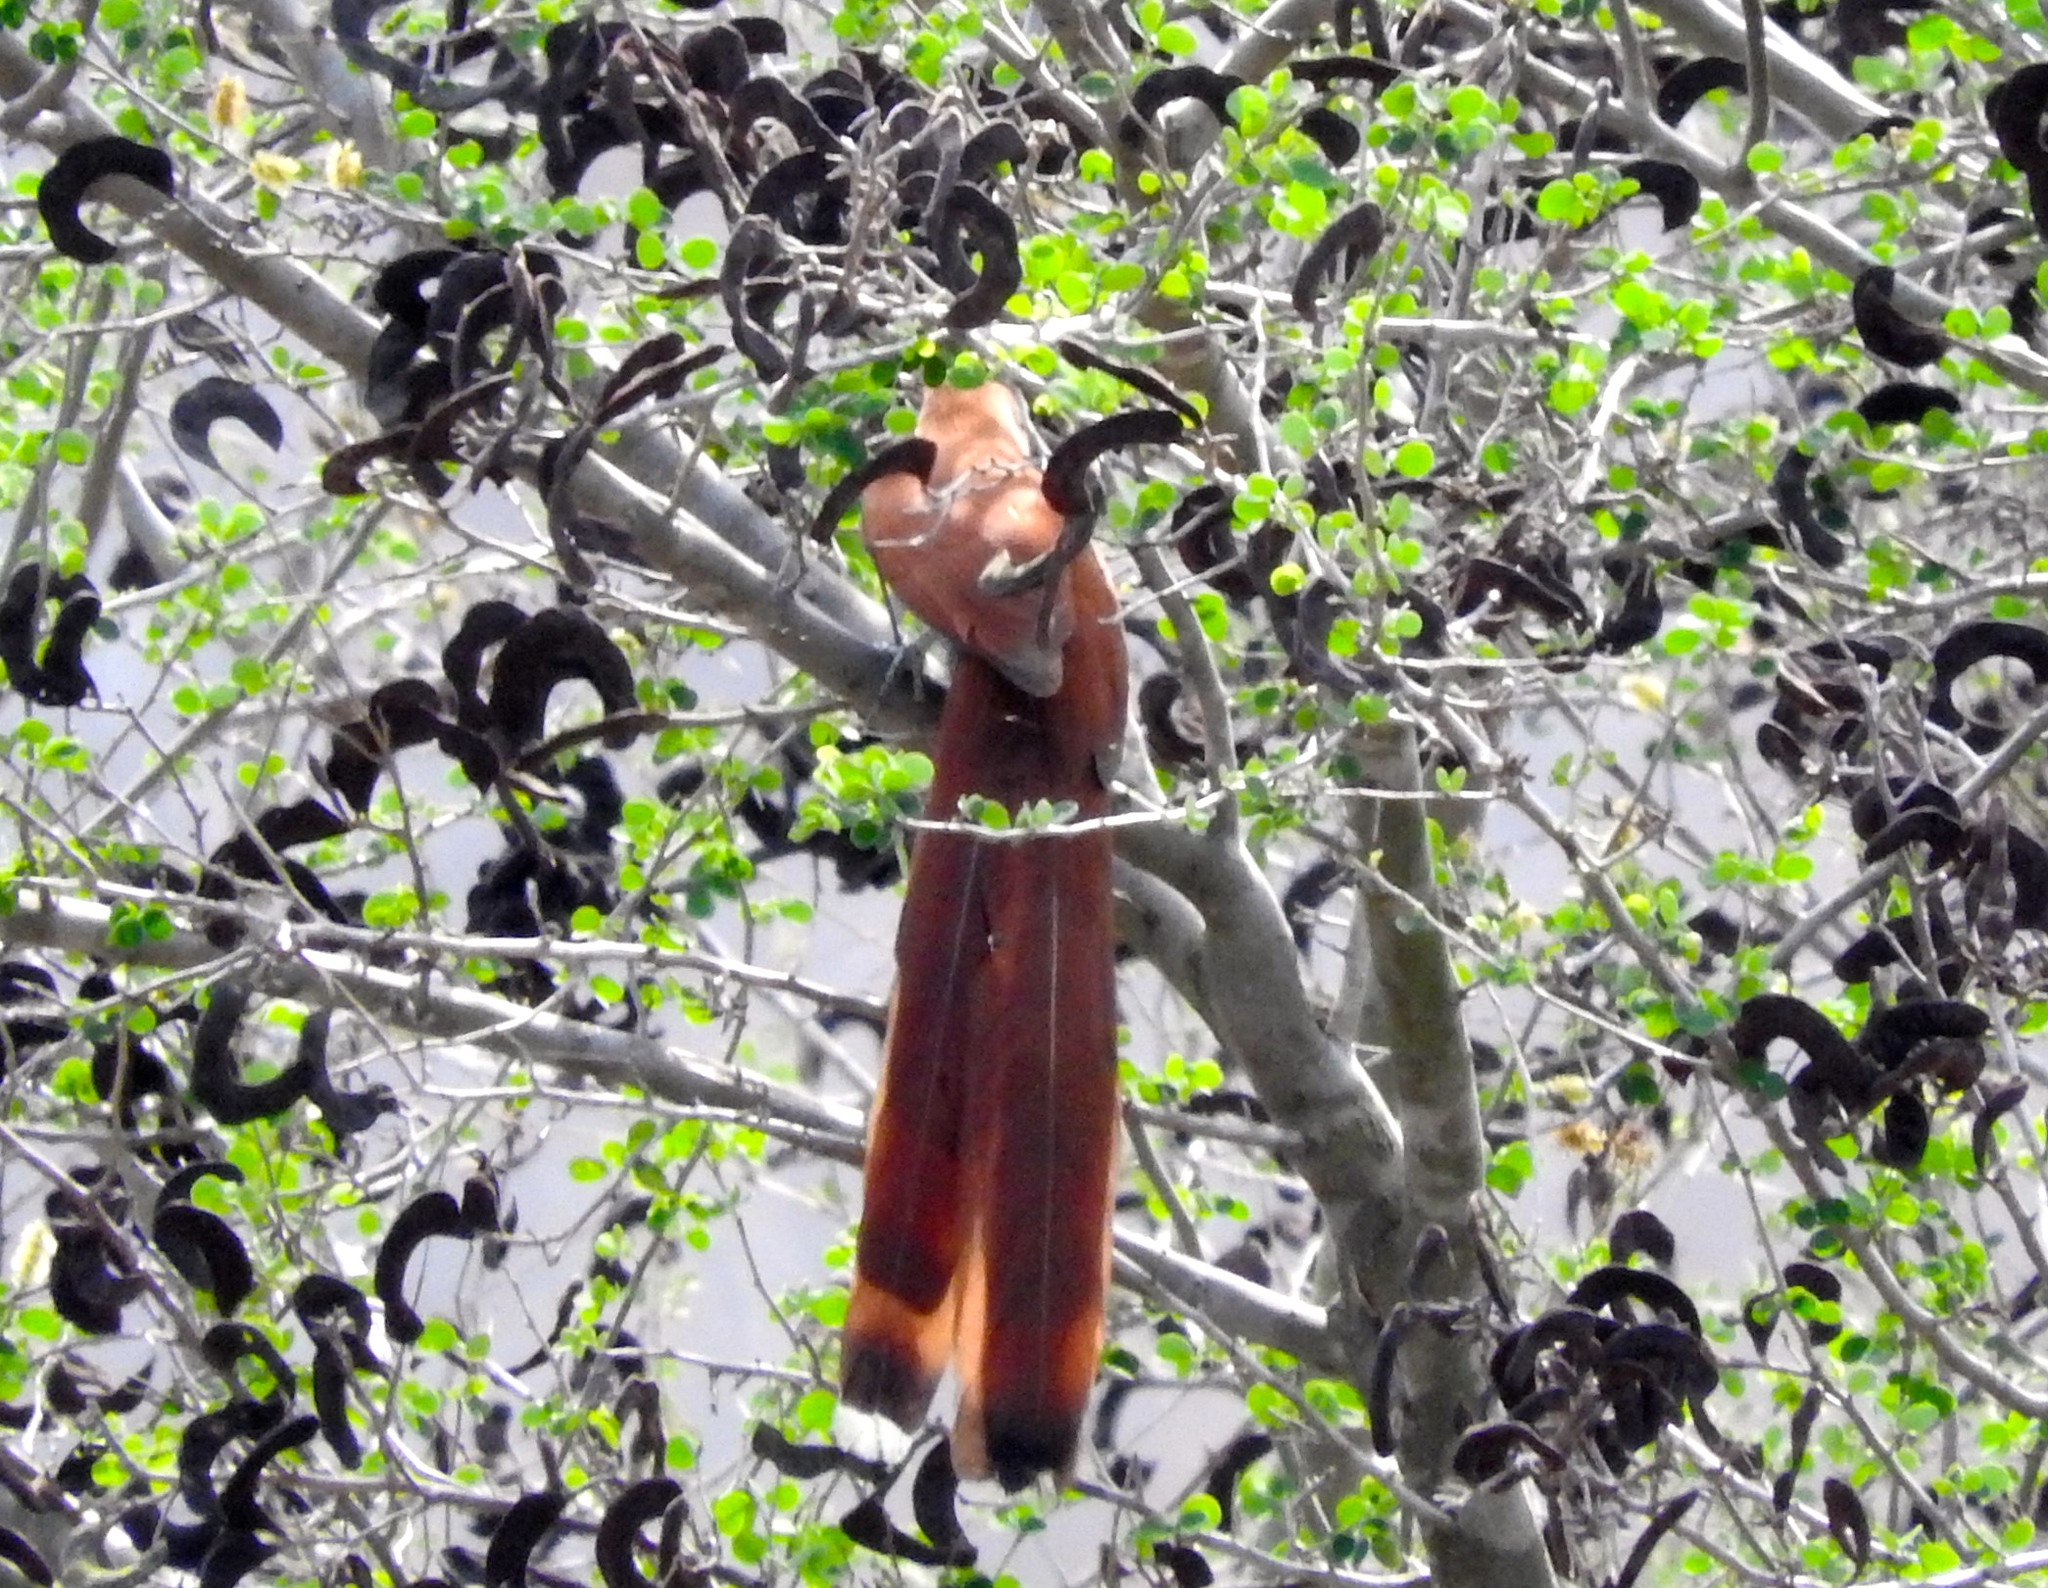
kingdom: Animalia
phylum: Chordata
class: Aves
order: Cuculiformes
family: Cuculidae
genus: Piaya
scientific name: Piaya cayana
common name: Squirrel cuckoo
